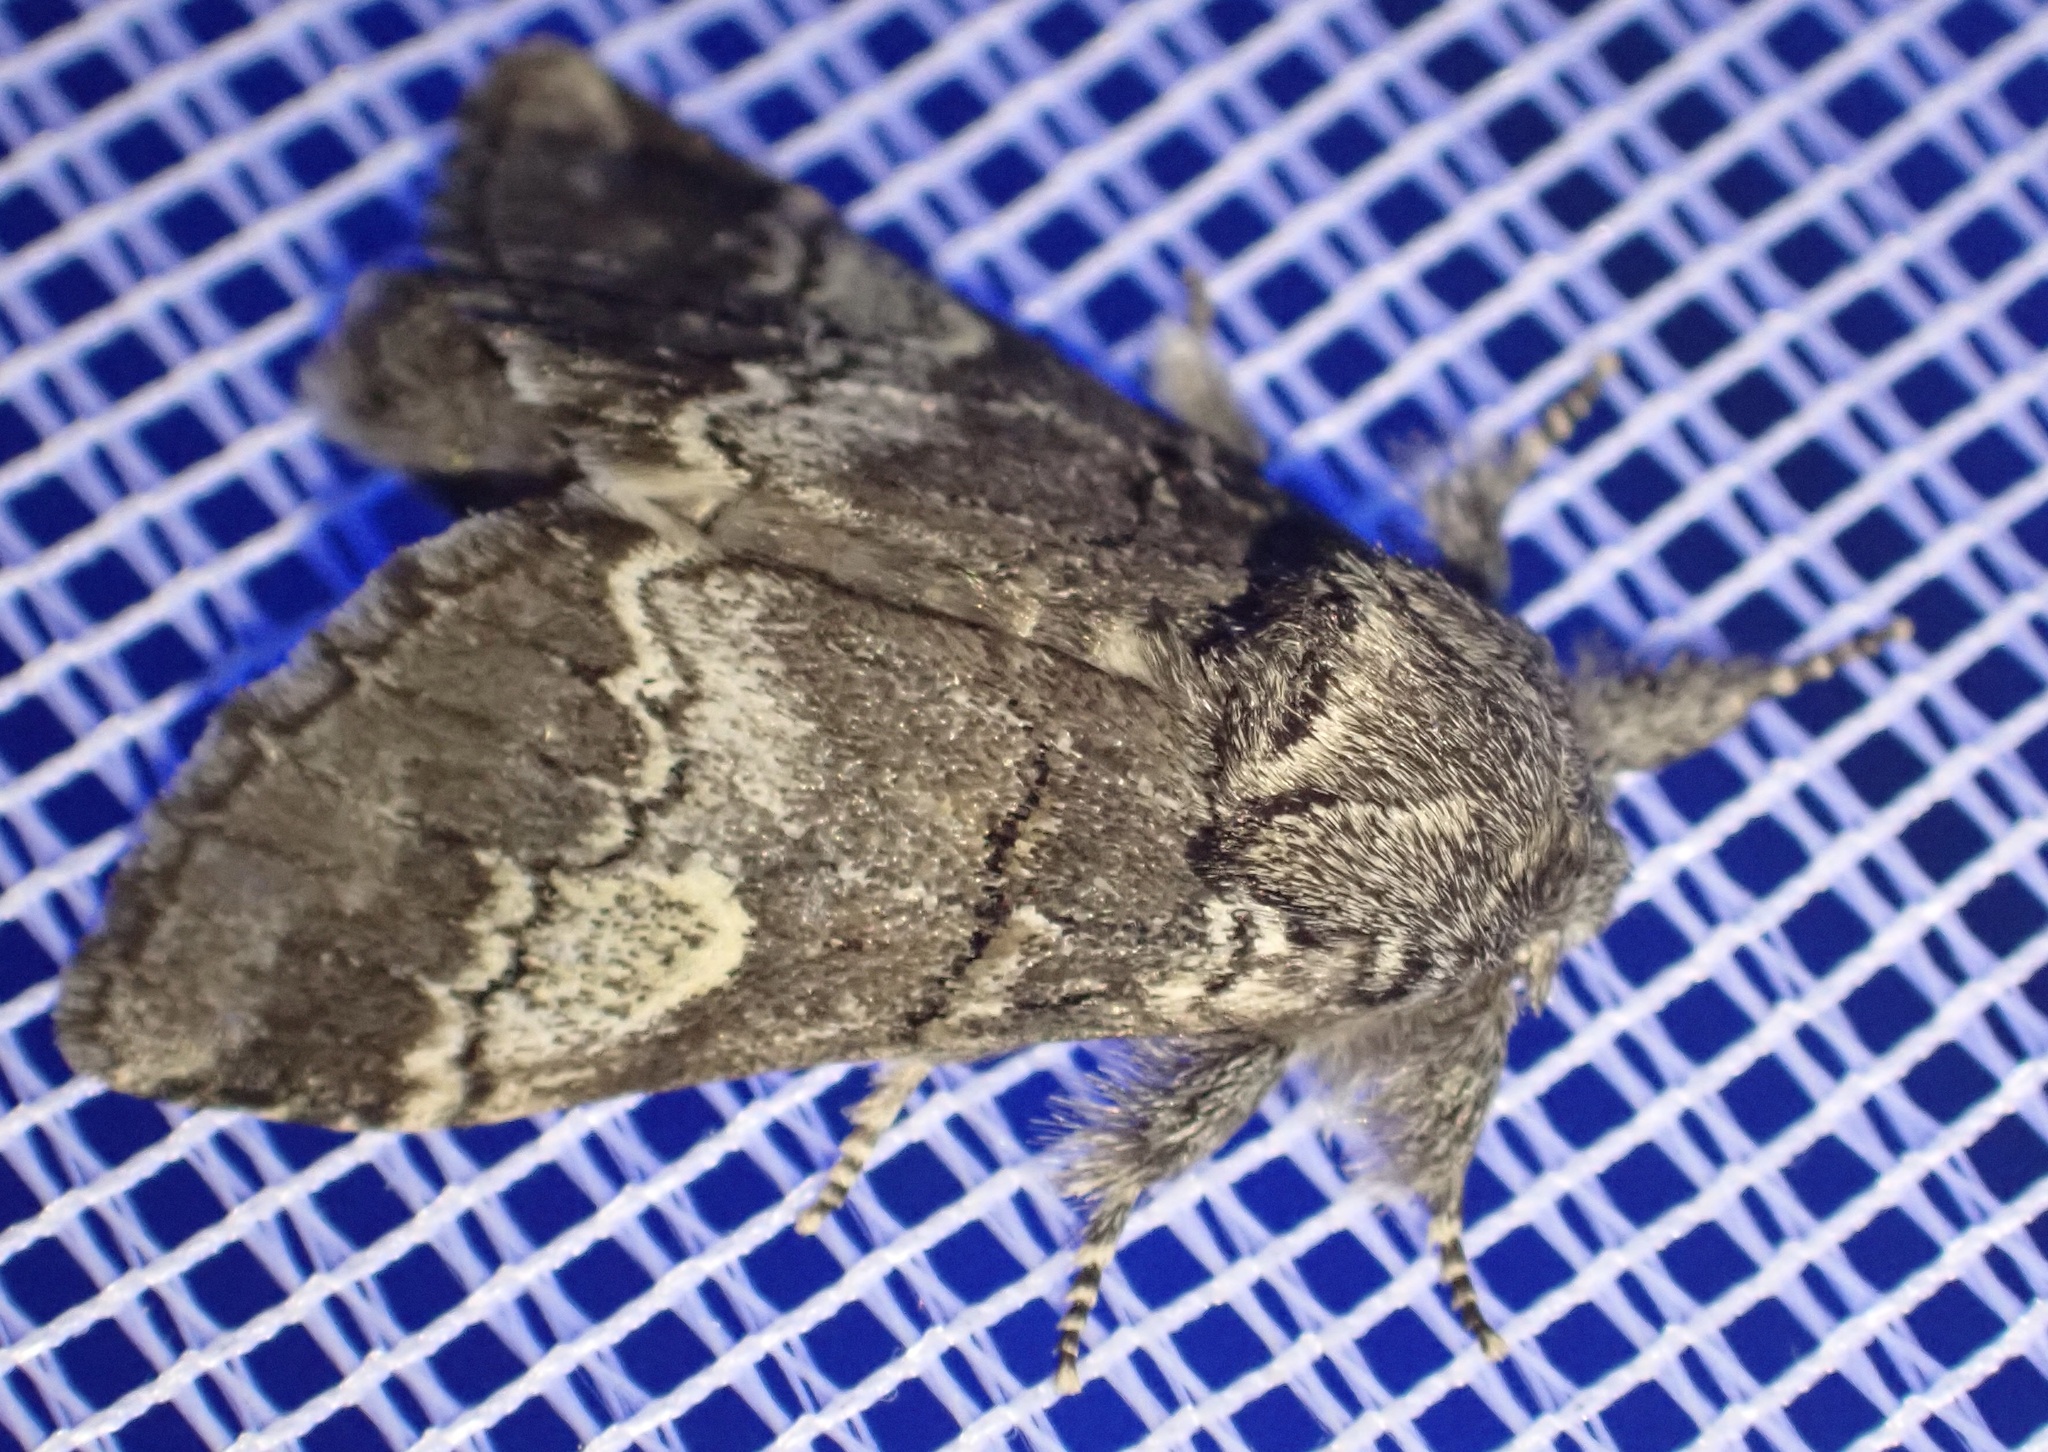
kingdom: Animalia
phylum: Arthropoda
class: Insecta
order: Lepidoptera
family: Notodontidae
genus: Drymonia
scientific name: Drymonia querna
